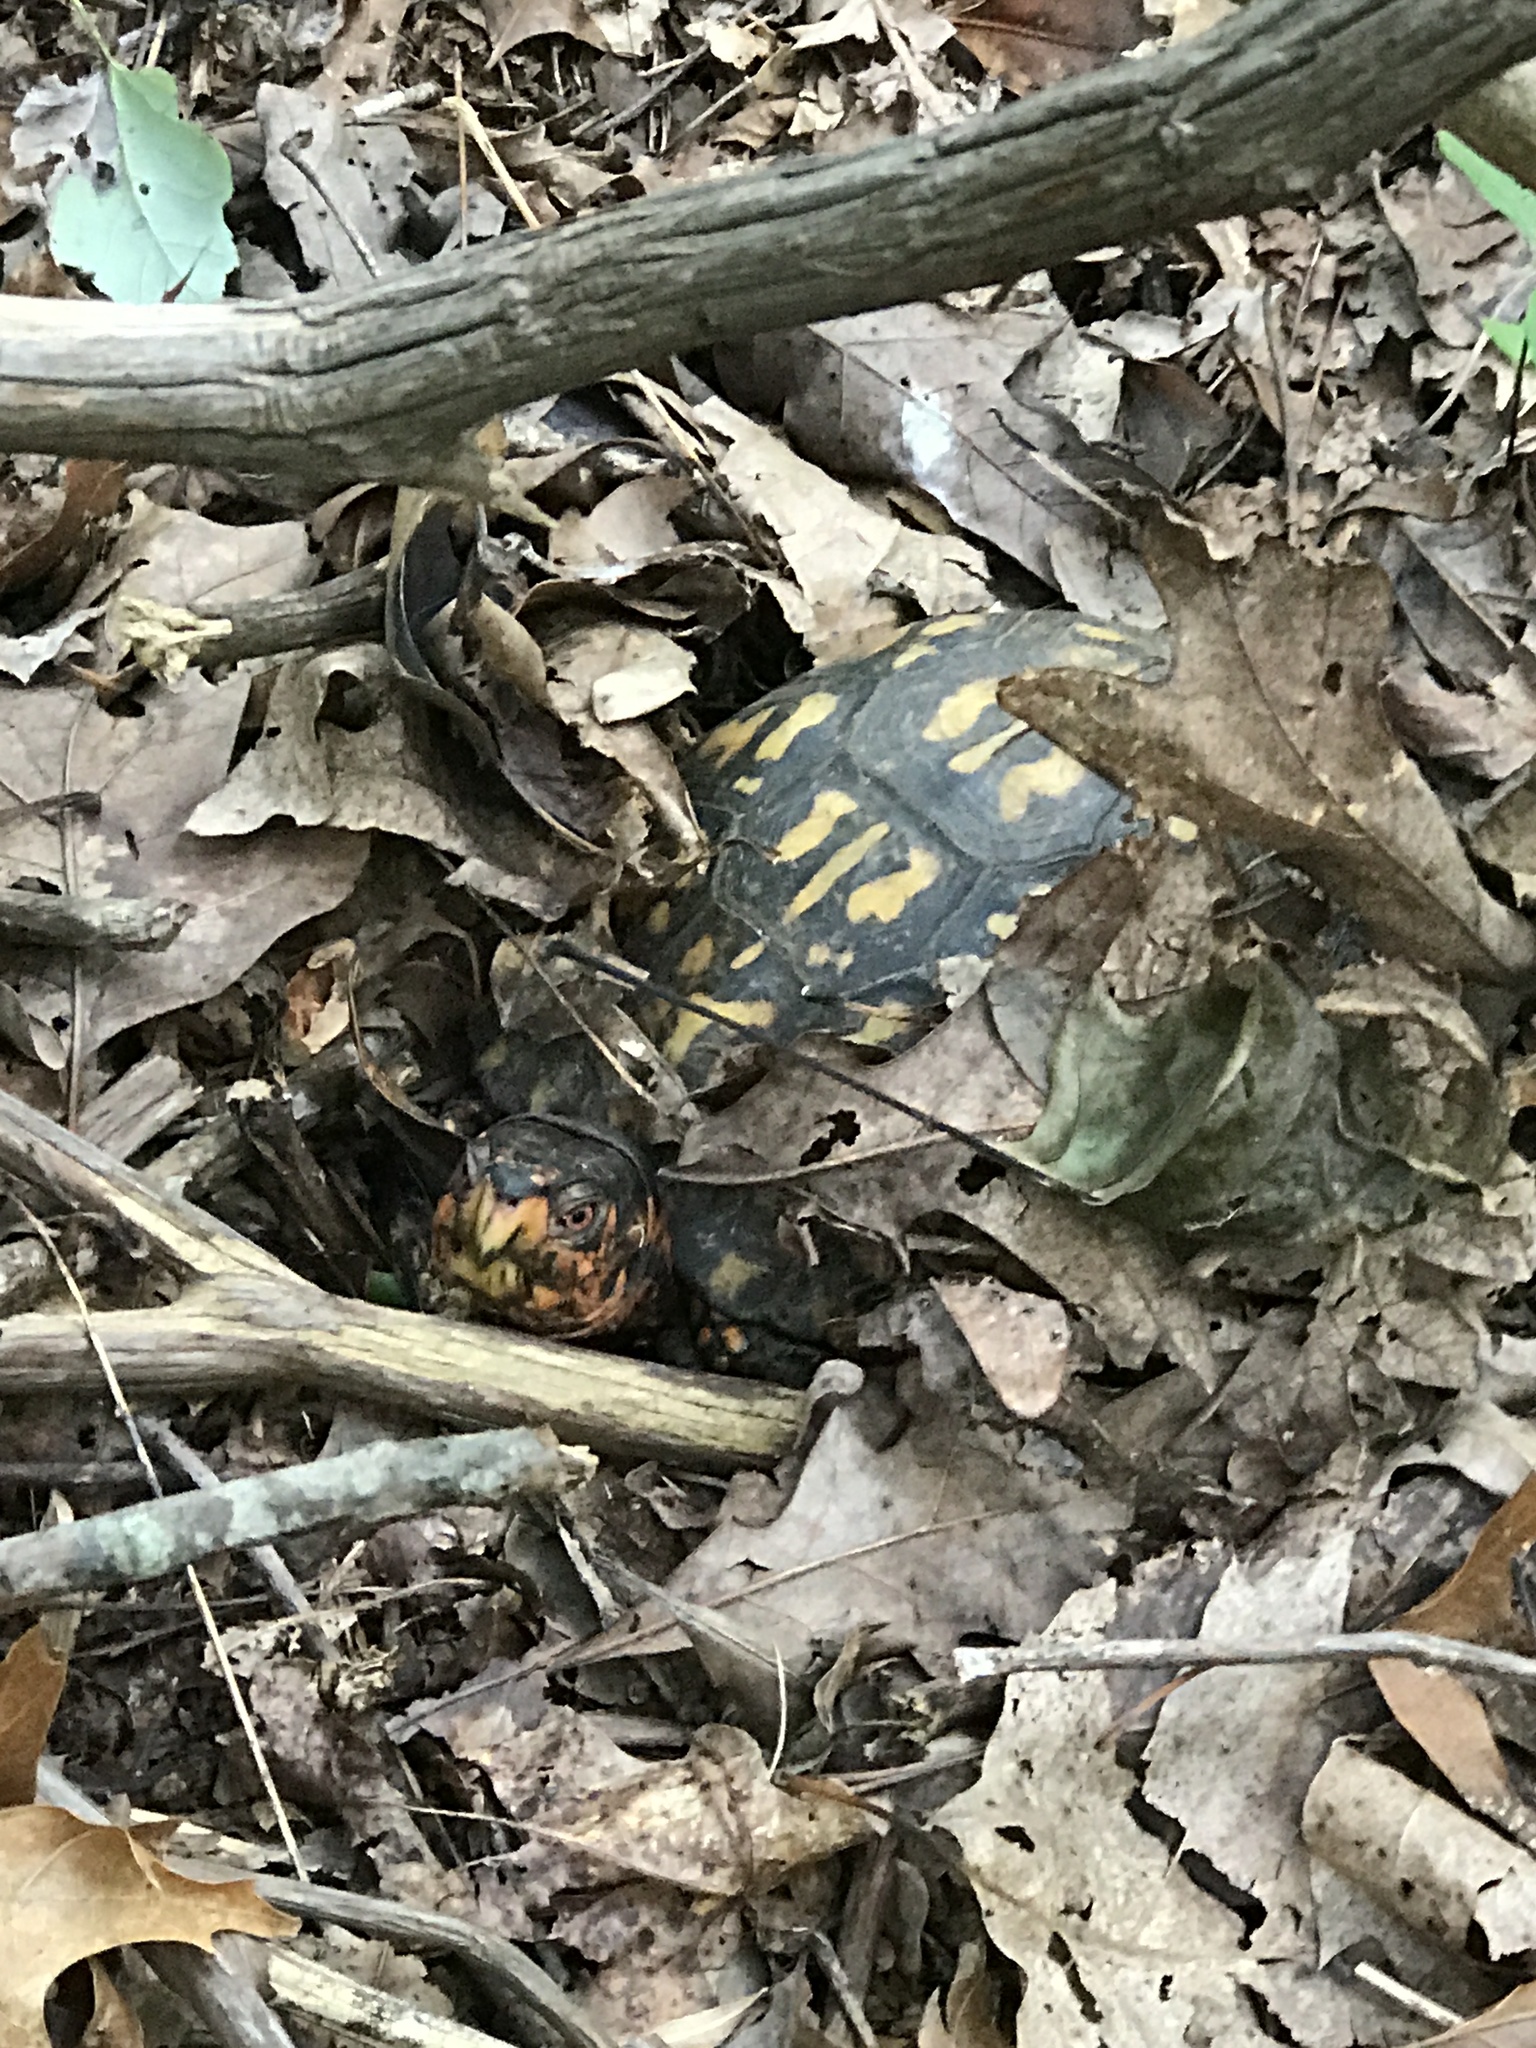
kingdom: Animalia
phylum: Chordata
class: Testudines
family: Emydidae
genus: Terrapene
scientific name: Terrapene carolina
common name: Common box turtle
